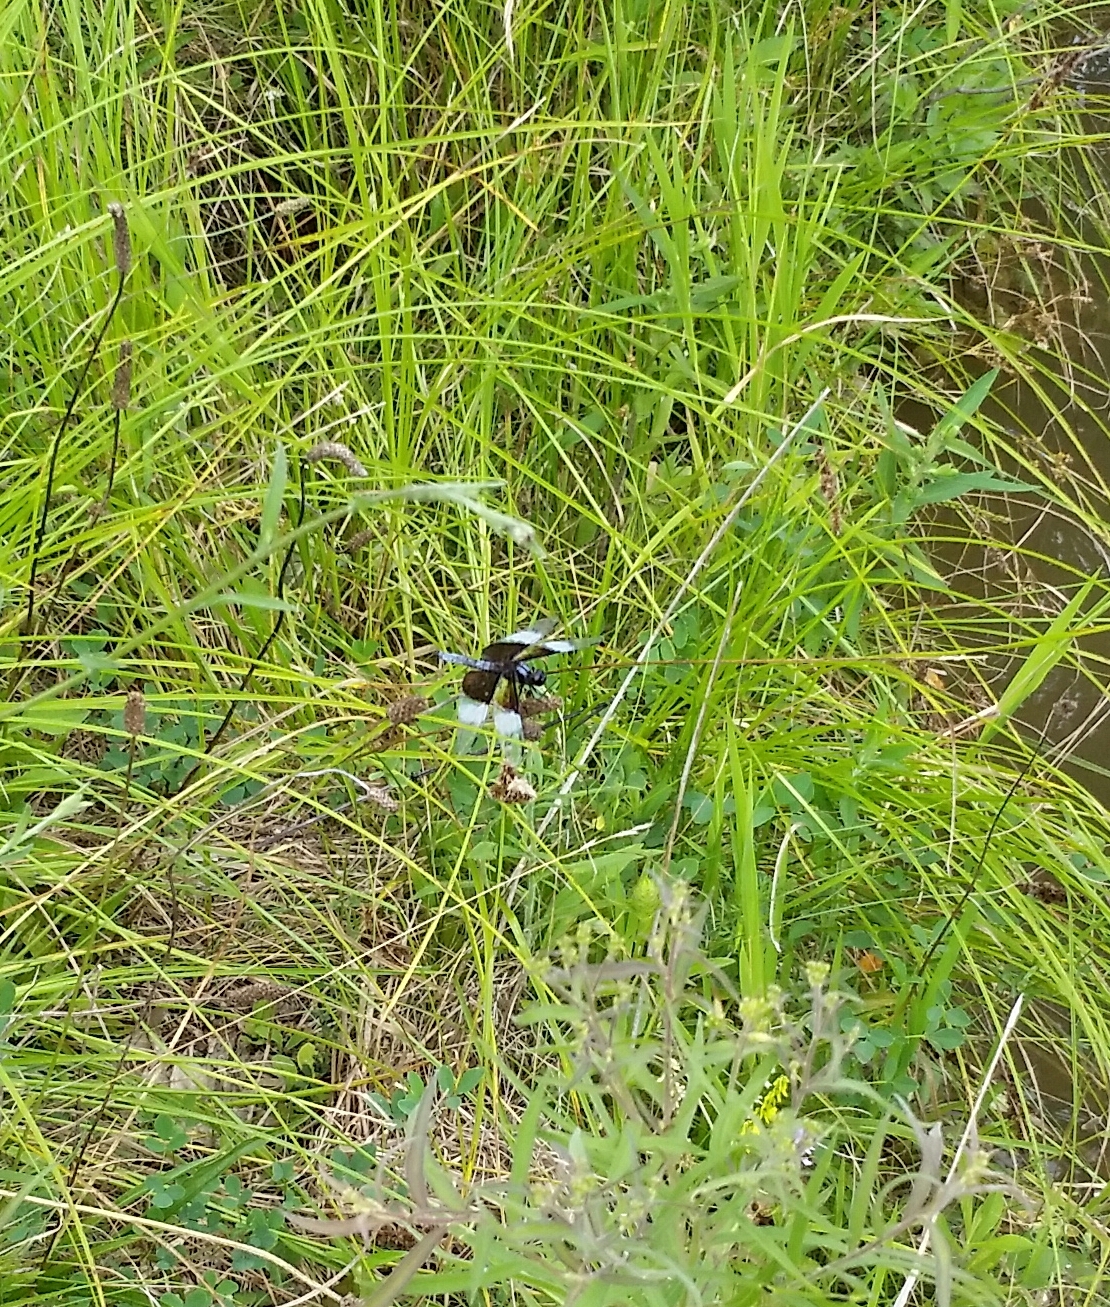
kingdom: Animalia
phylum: Arthropoda
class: Insecta
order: Odonata
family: Libellulidae
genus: Libellula
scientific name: Libellula luctuosa
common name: Widow skimmer
